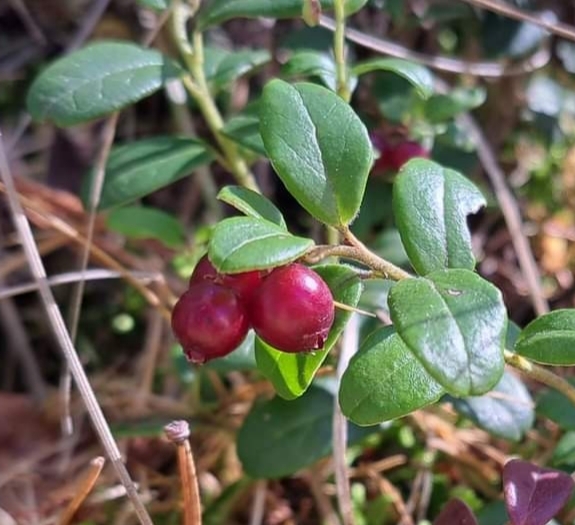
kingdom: Plantae
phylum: Tracheophyta
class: Magnoliopsida
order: Ericales
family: Ericaceae
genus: Vaccinium
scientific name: Vaccinium vitis-idaea
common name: Cowberry
